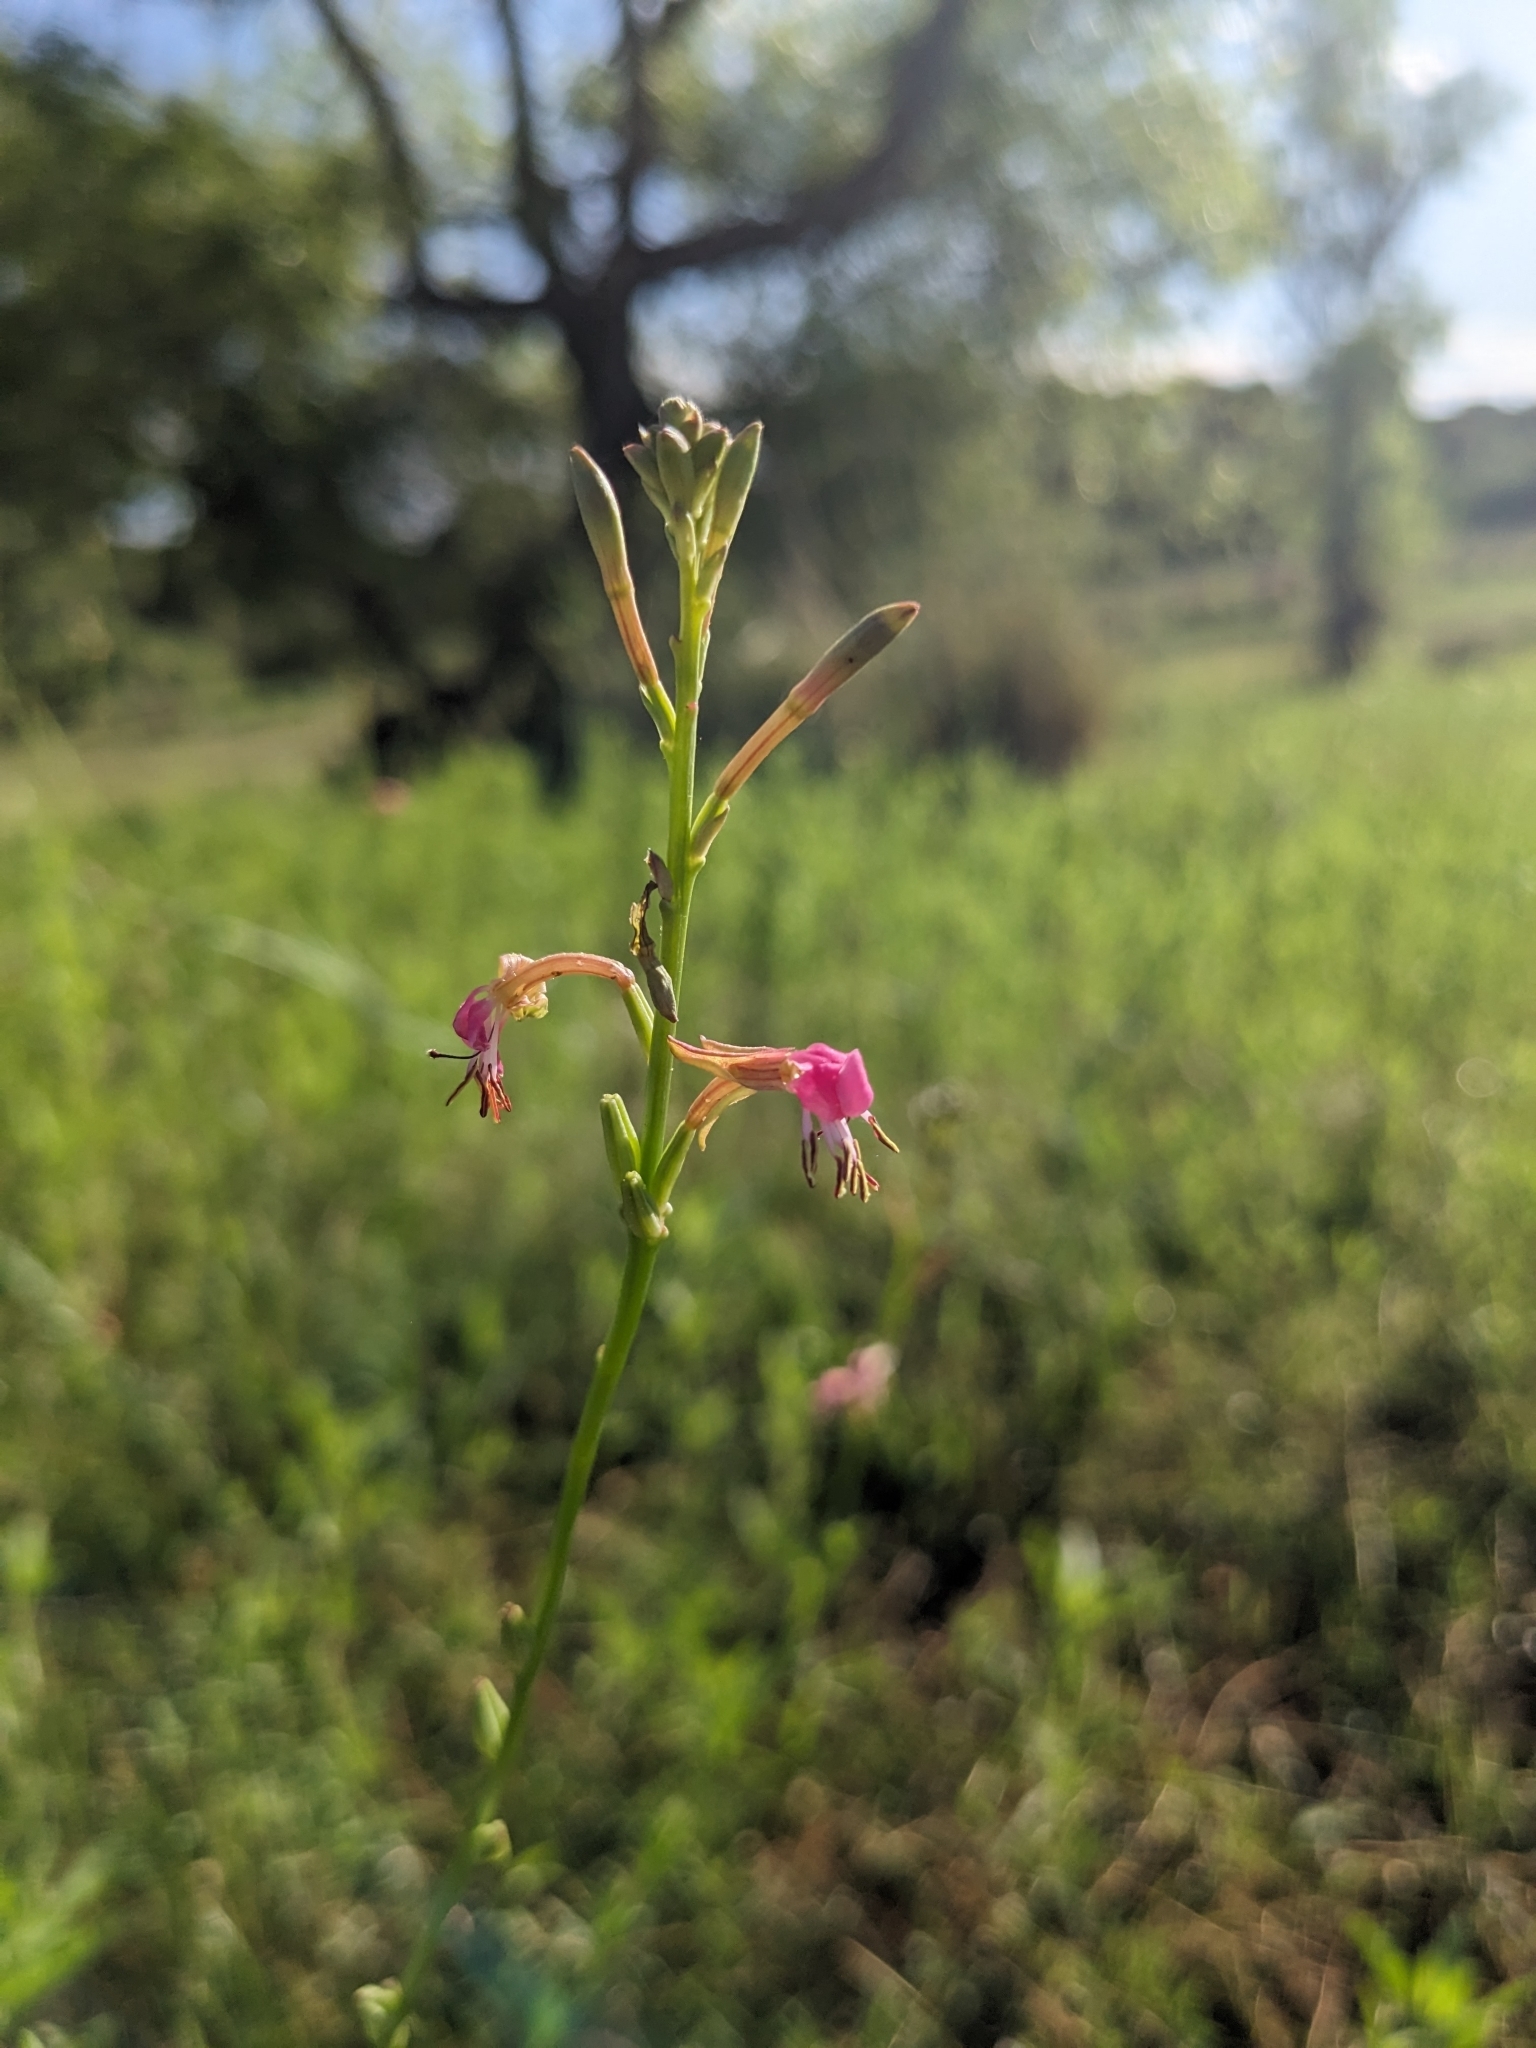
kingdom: Plantae
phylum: Tracheophyta
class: Magnoliopsida
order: Myrtales
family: Onagraceae
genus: Oenothera
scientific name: Oenothera podocarpa
